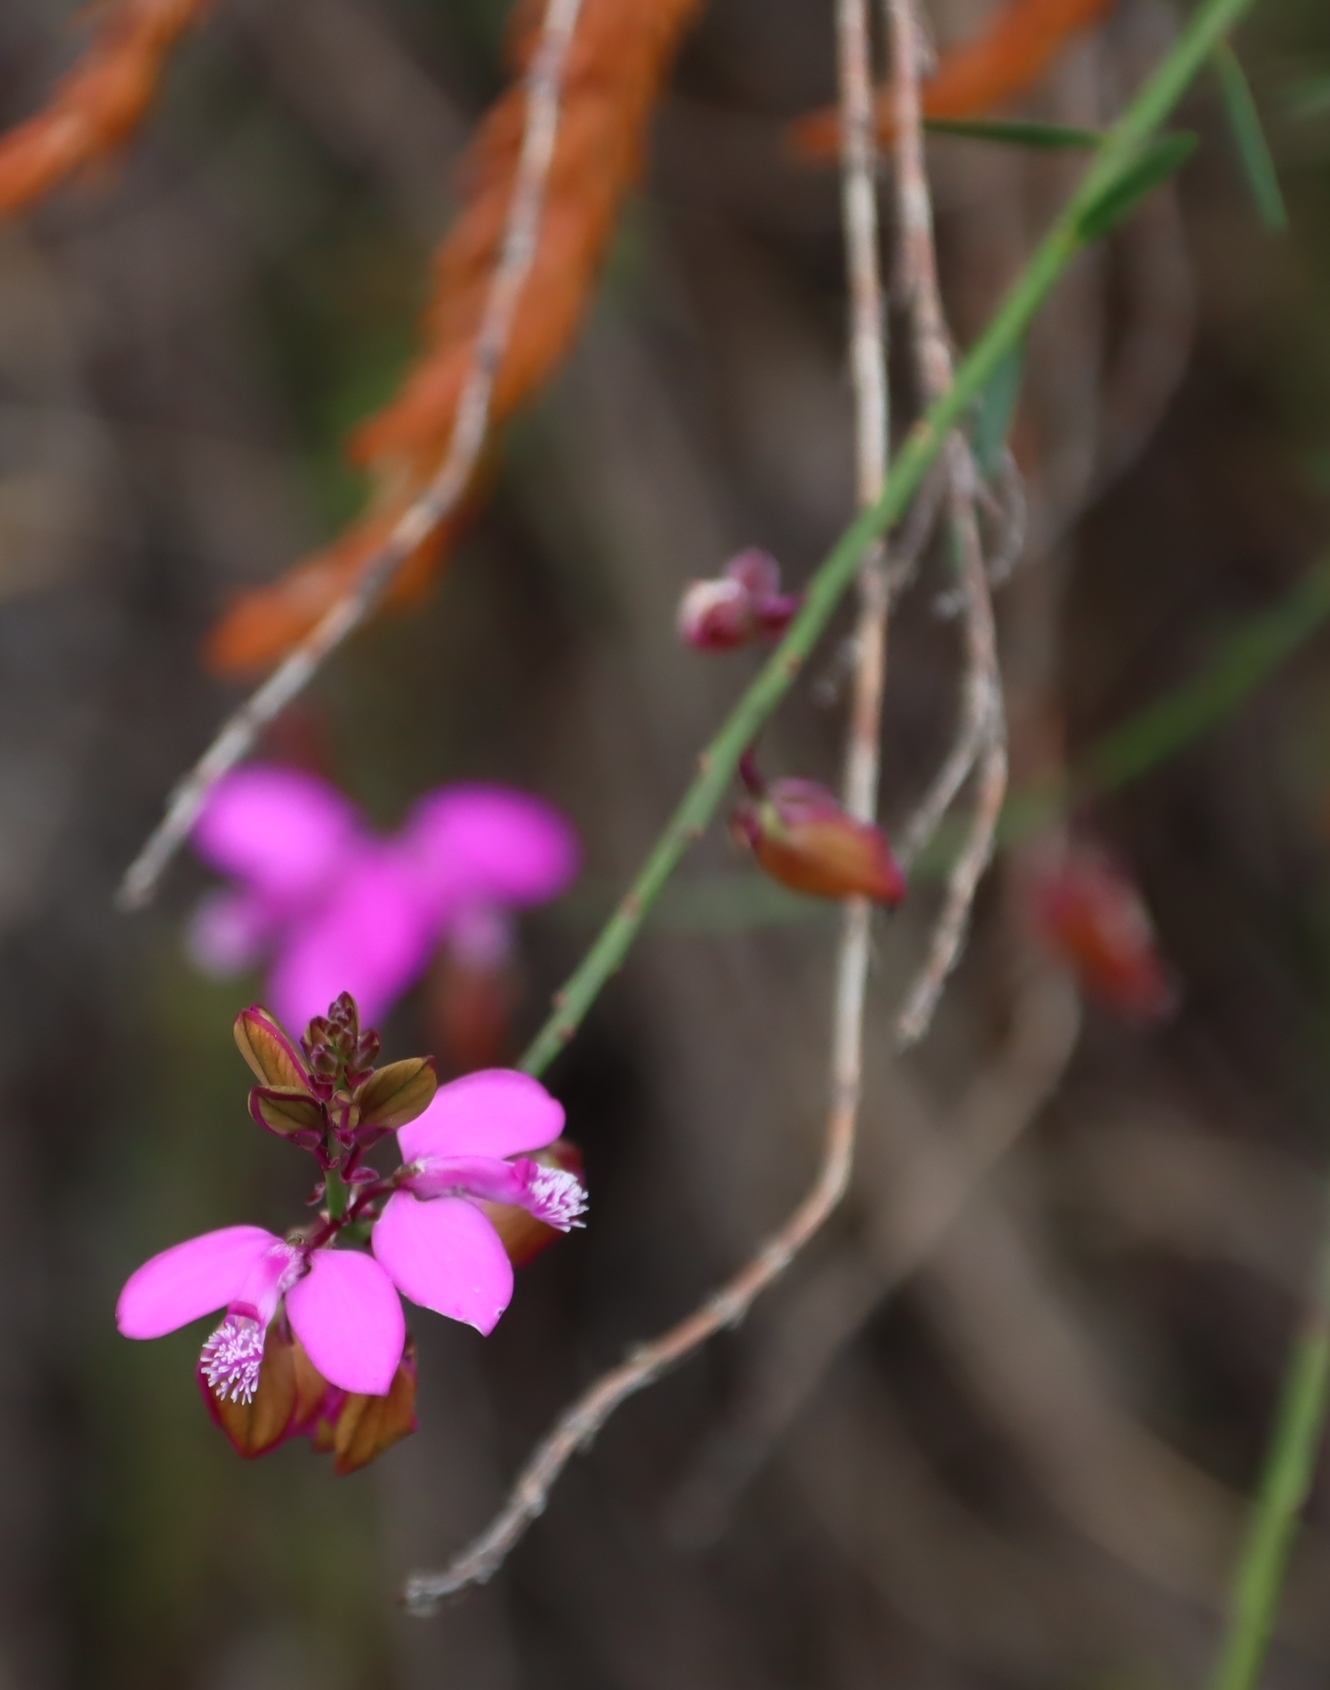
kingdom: Plantae
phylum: Tracheophyta
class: Magnoliopsida
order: Fabales
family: Polygalaceae
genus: Polygala
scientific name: Polygala garcini
